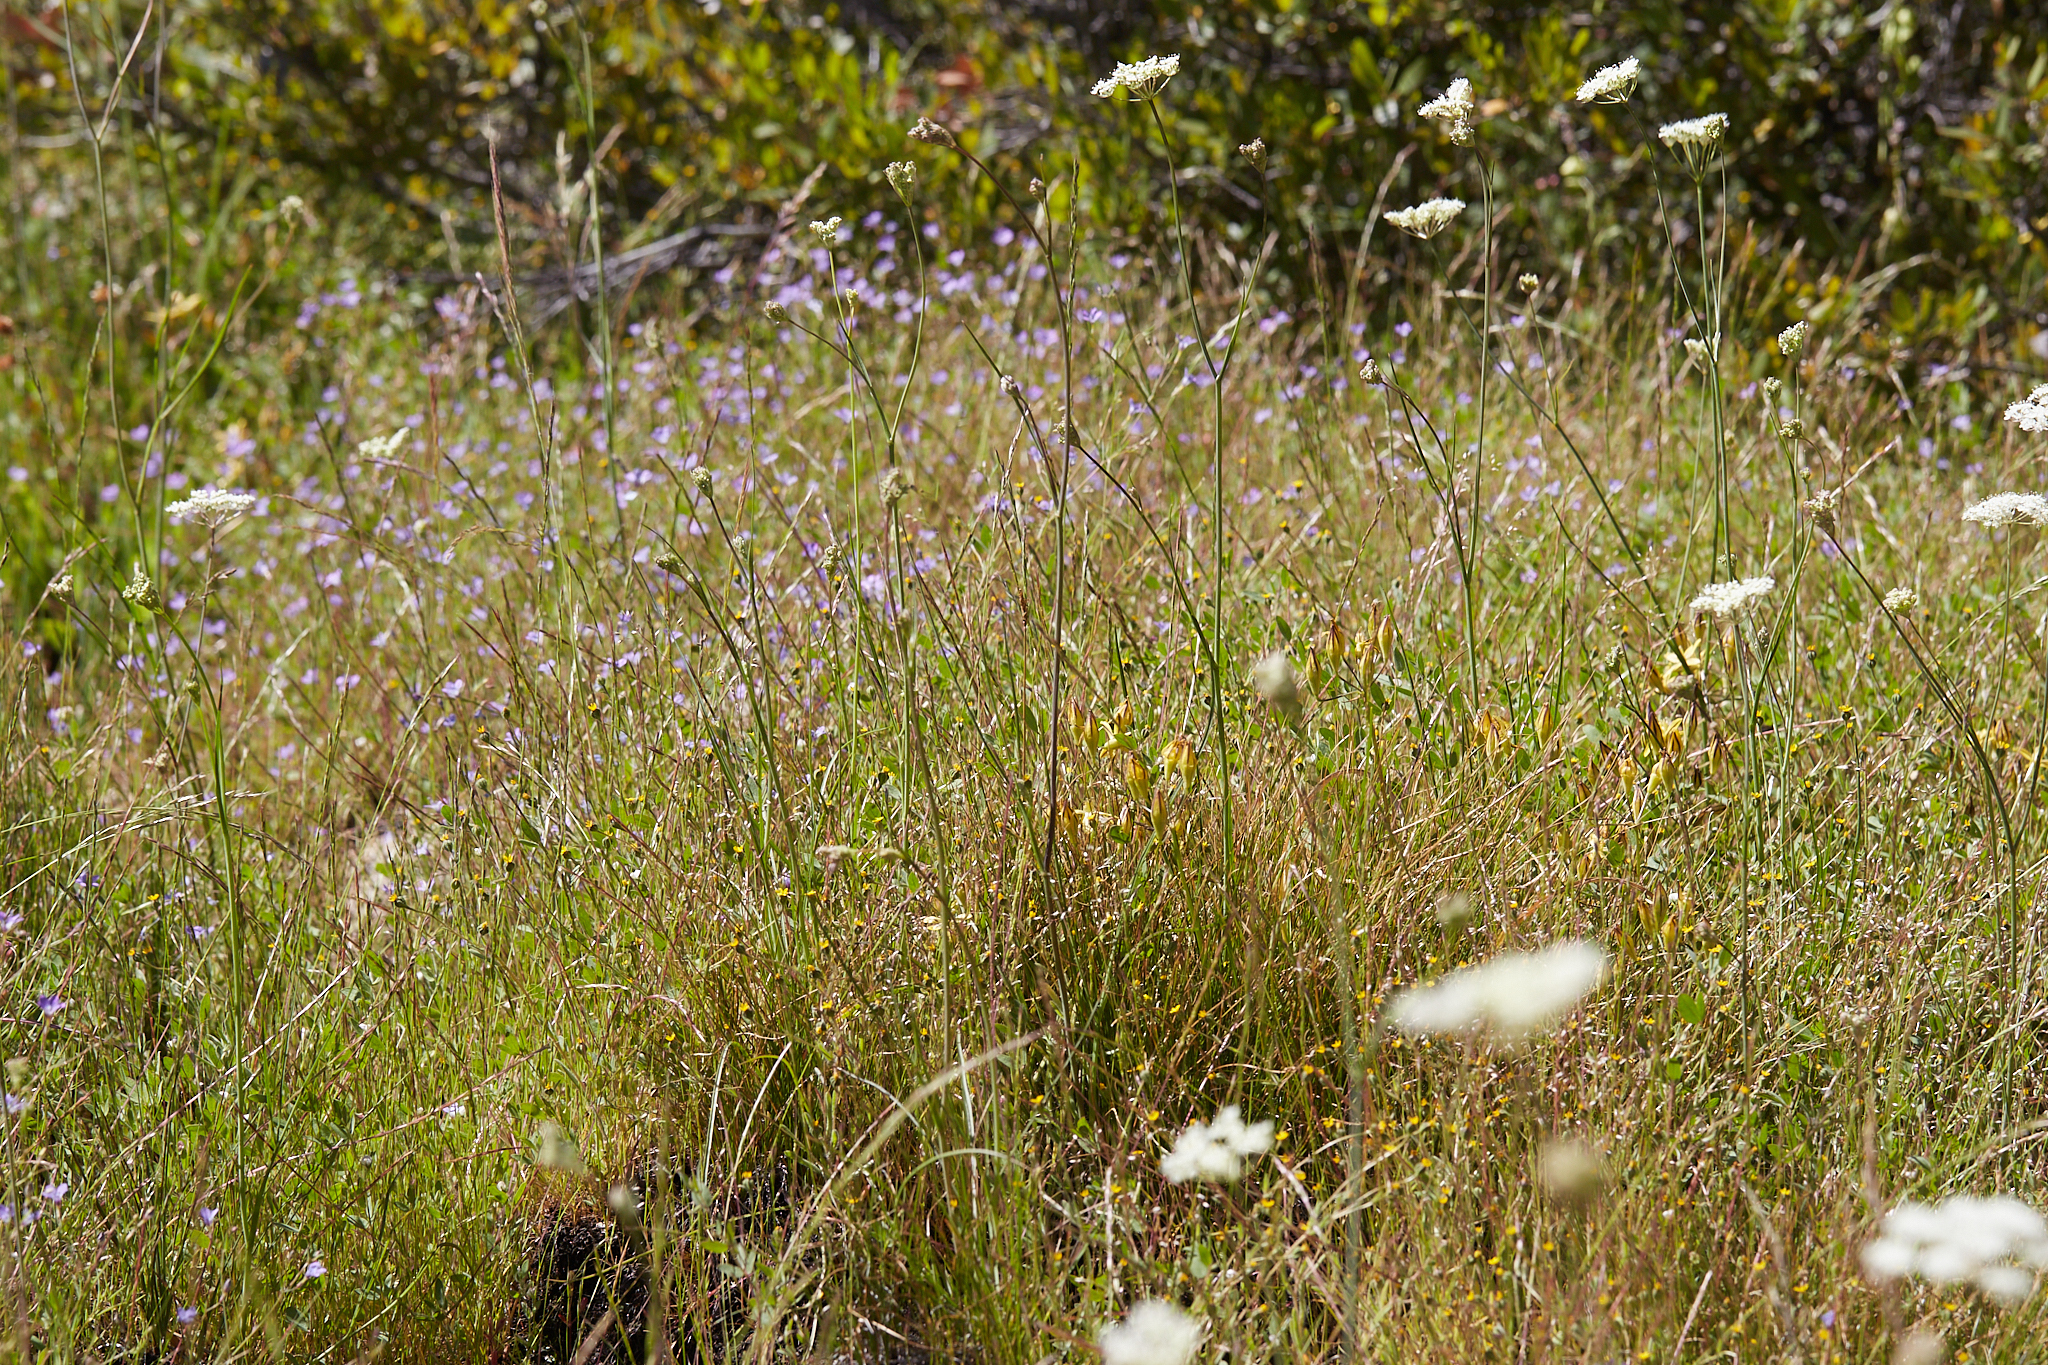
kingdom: Plantae
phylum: Tracheophyta
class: Magnoliopsida
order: Asterales
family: Asteraceae
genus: Jensia
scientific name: Jensia yosemitana
